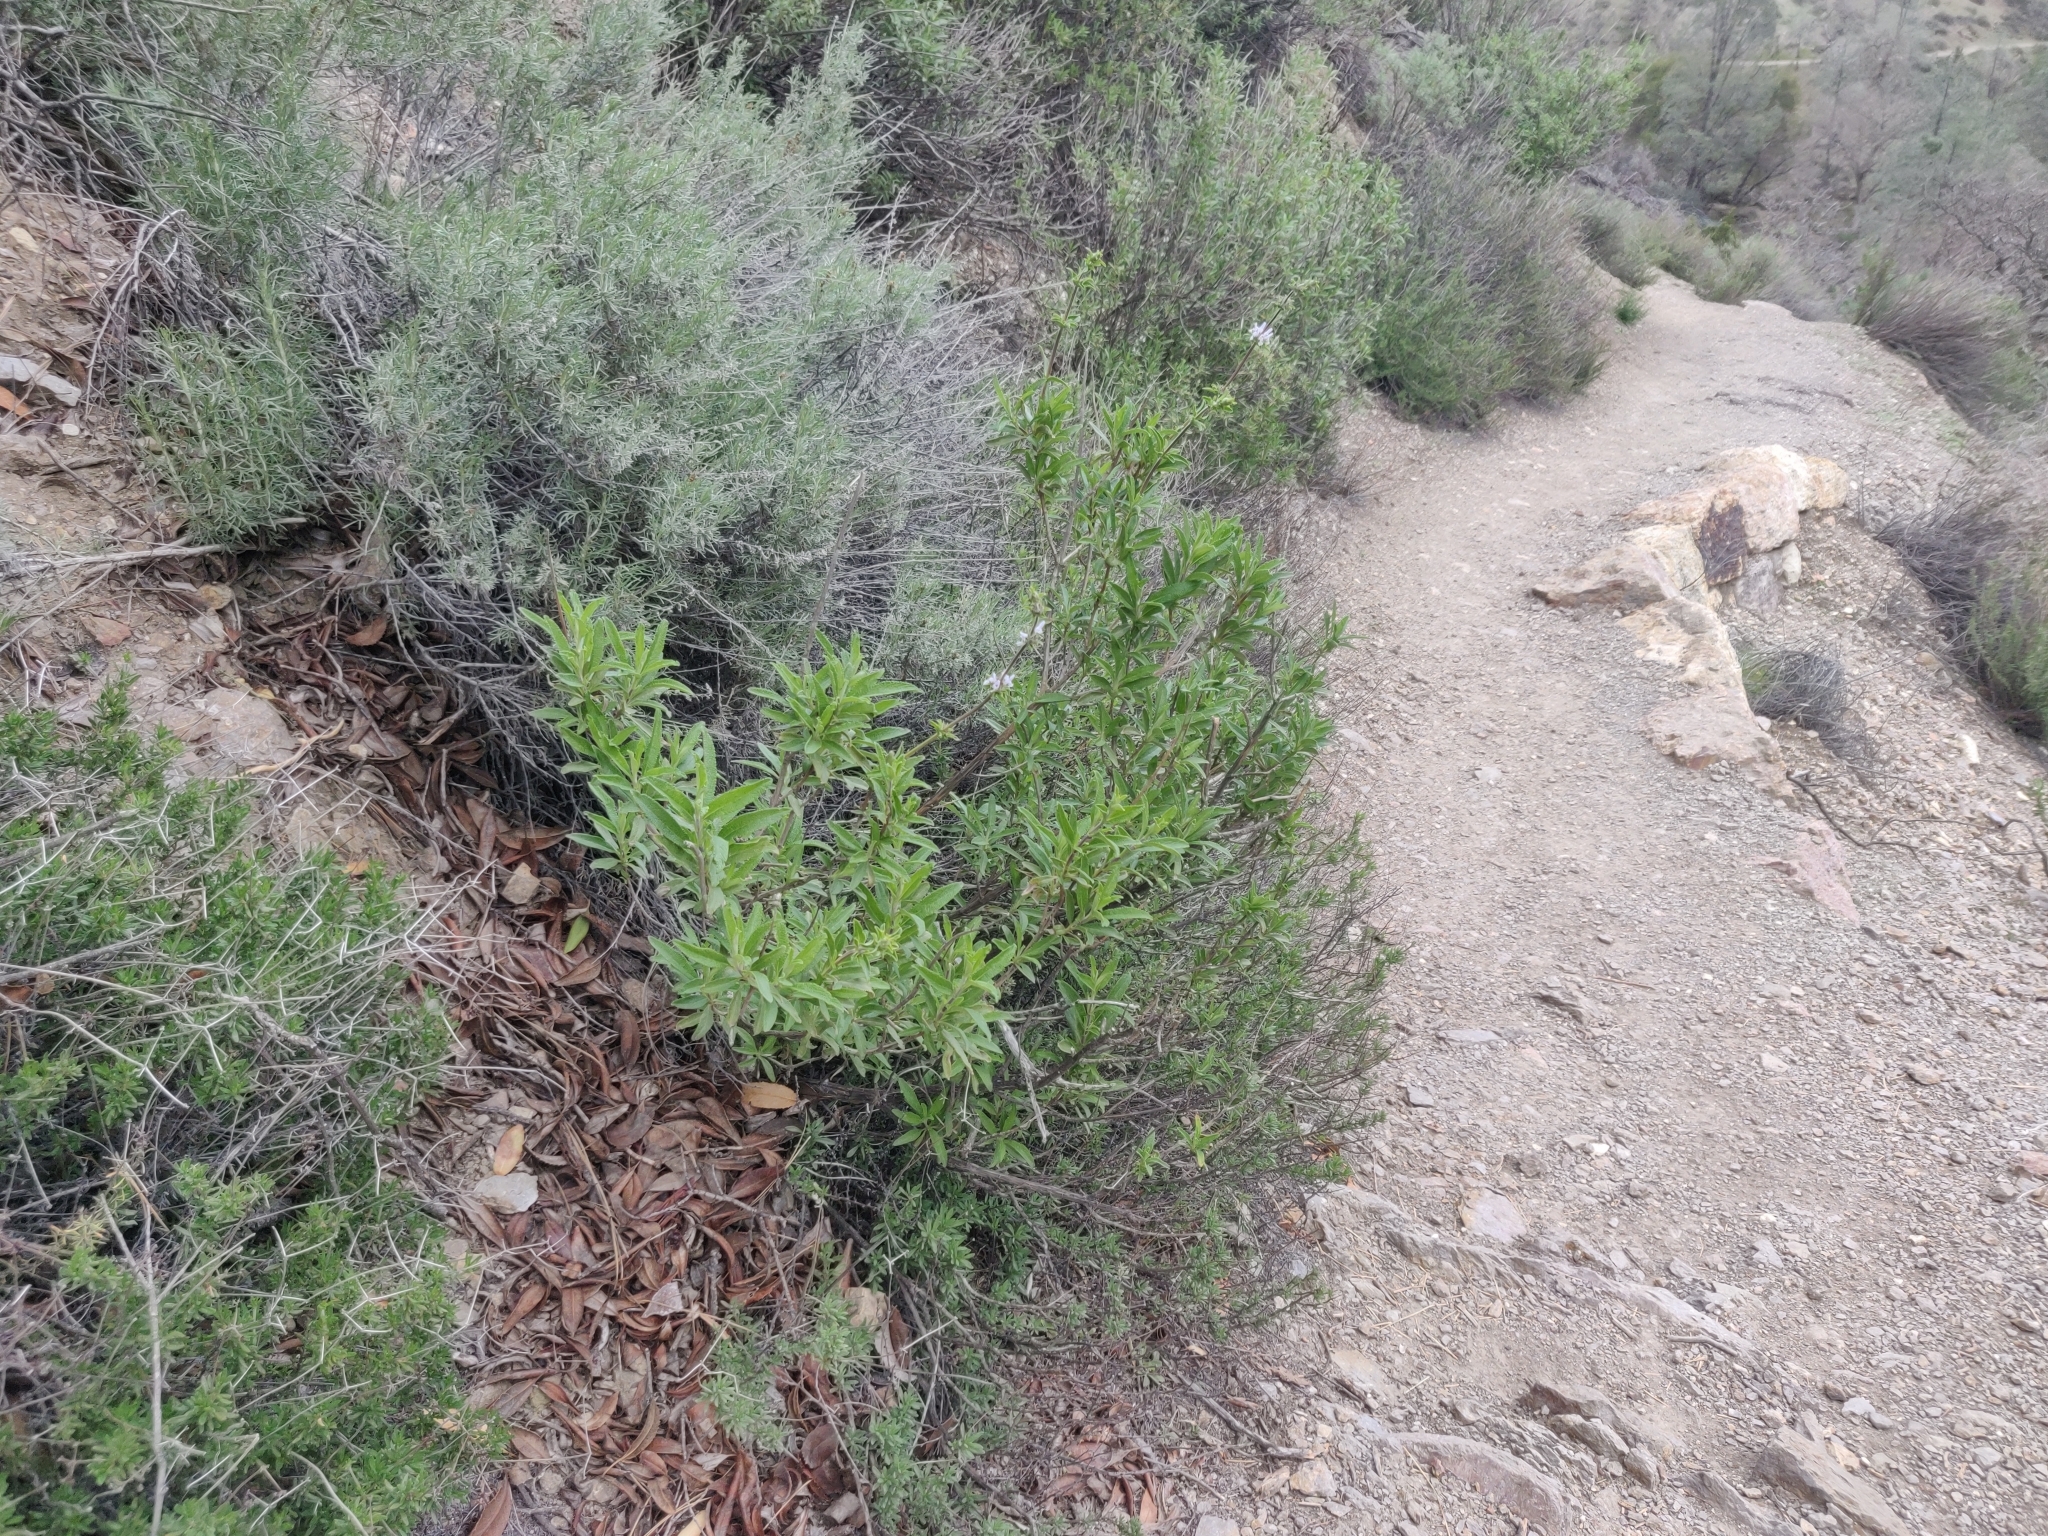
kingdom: Plantae
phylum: Tracheophyta
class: Magnoliopsida
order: Lamiales
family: Lamiaceae
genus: Salvia
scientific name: Salvia mellifera
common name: Black sage
